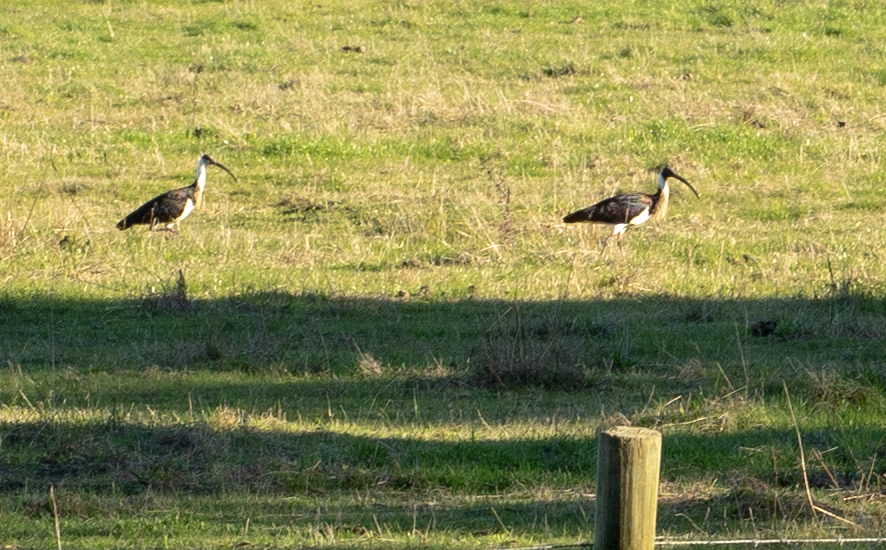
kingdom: Animalia
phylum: Chordata
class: Aves
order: Pelecaniformes
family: Threskiornithidae
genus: Threskiornis
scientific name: Threskiornis spinicollis
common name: Straw-necked ibis
